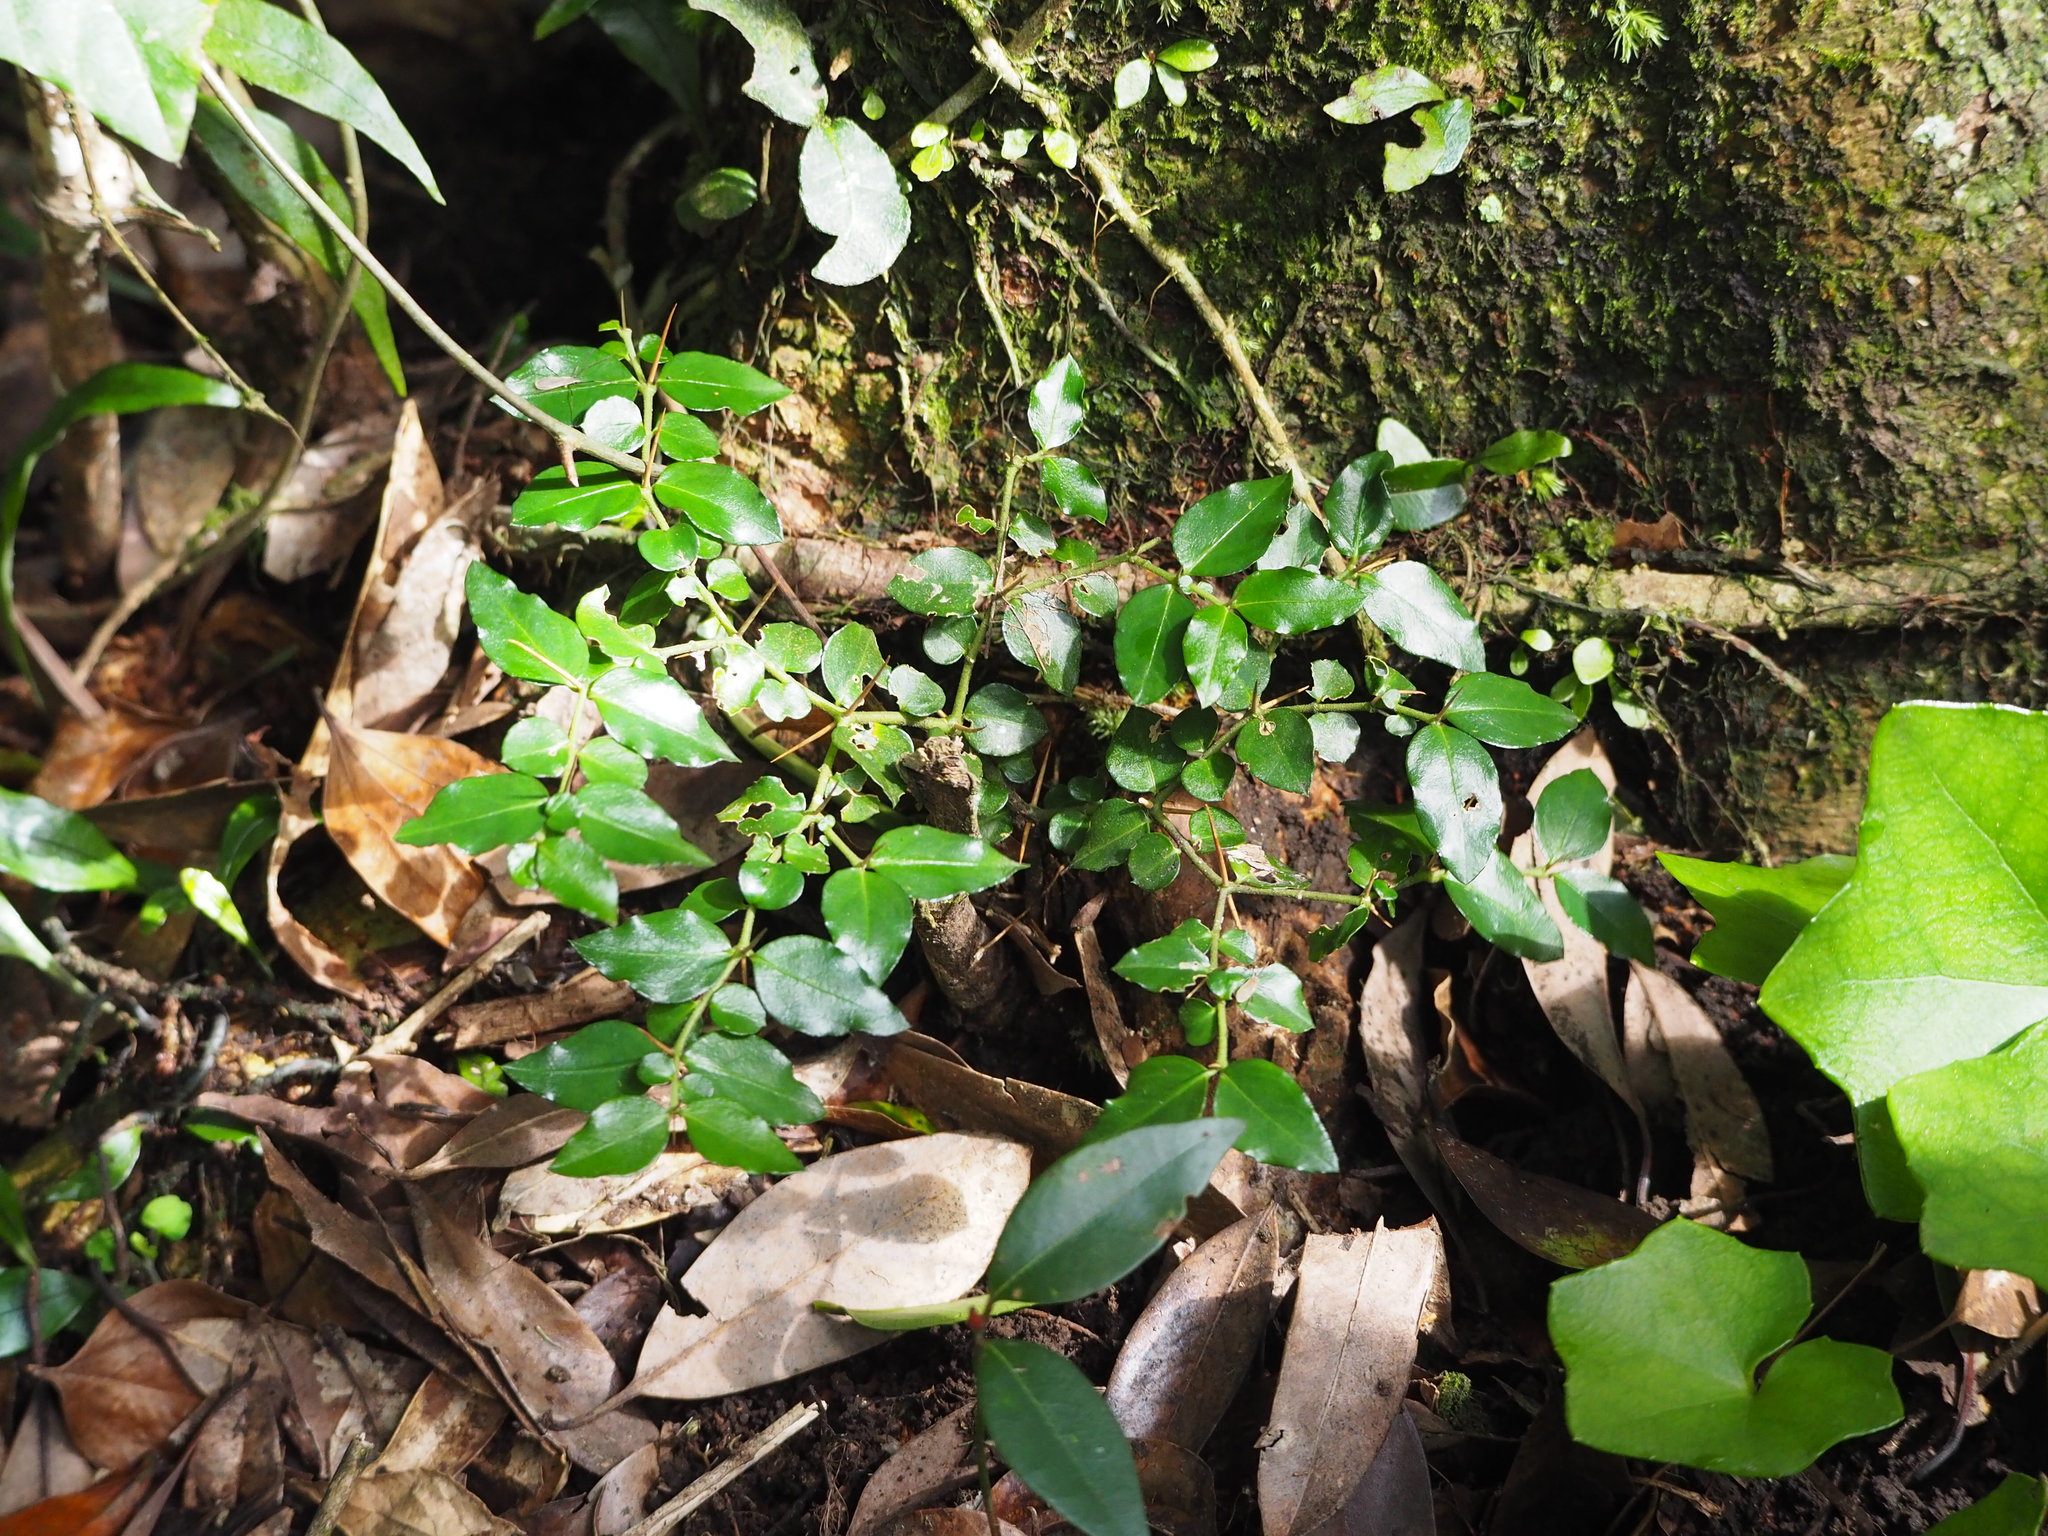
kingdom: Plantae
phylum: Tracheophyta
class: Magnoliopsida
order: Gentianales
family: Rubiaceae
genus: Damnacanthus
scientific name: Damnacanthus indicus
